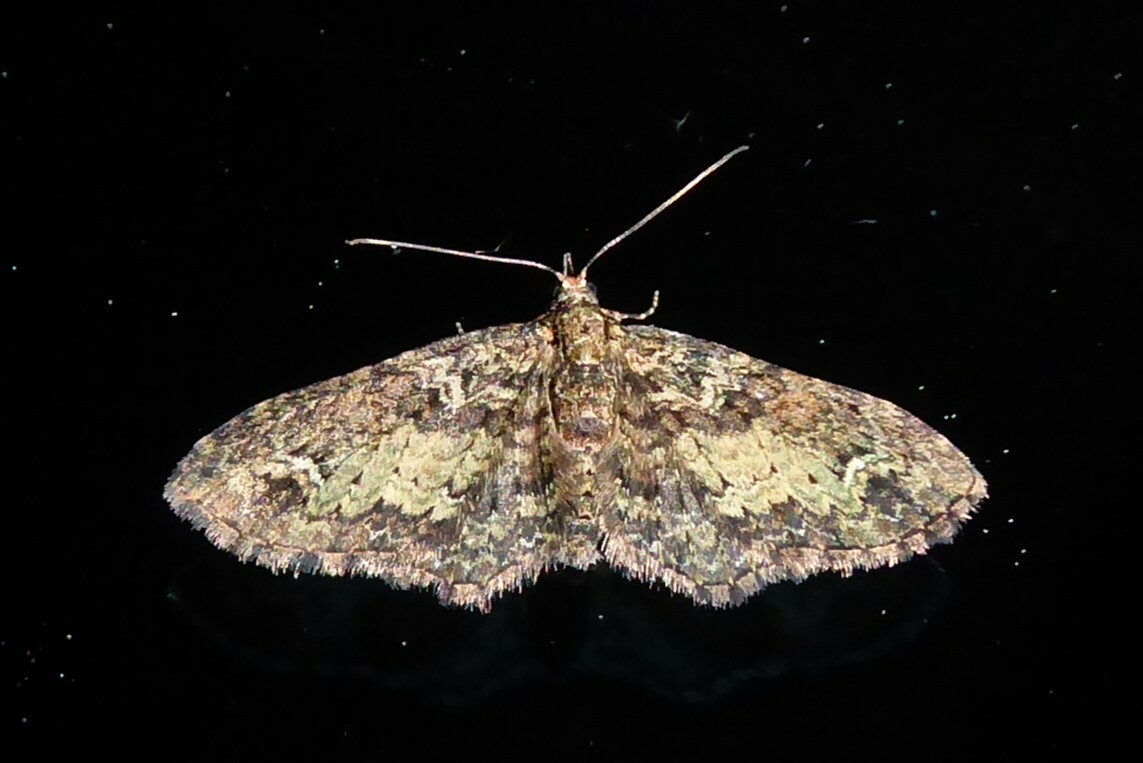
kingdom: Animalia
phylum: Arthropoda
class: Insecta
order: Lepidoptera
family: Geometridae
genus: Pasiphilodes
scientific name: Pasiphilodes testulata
